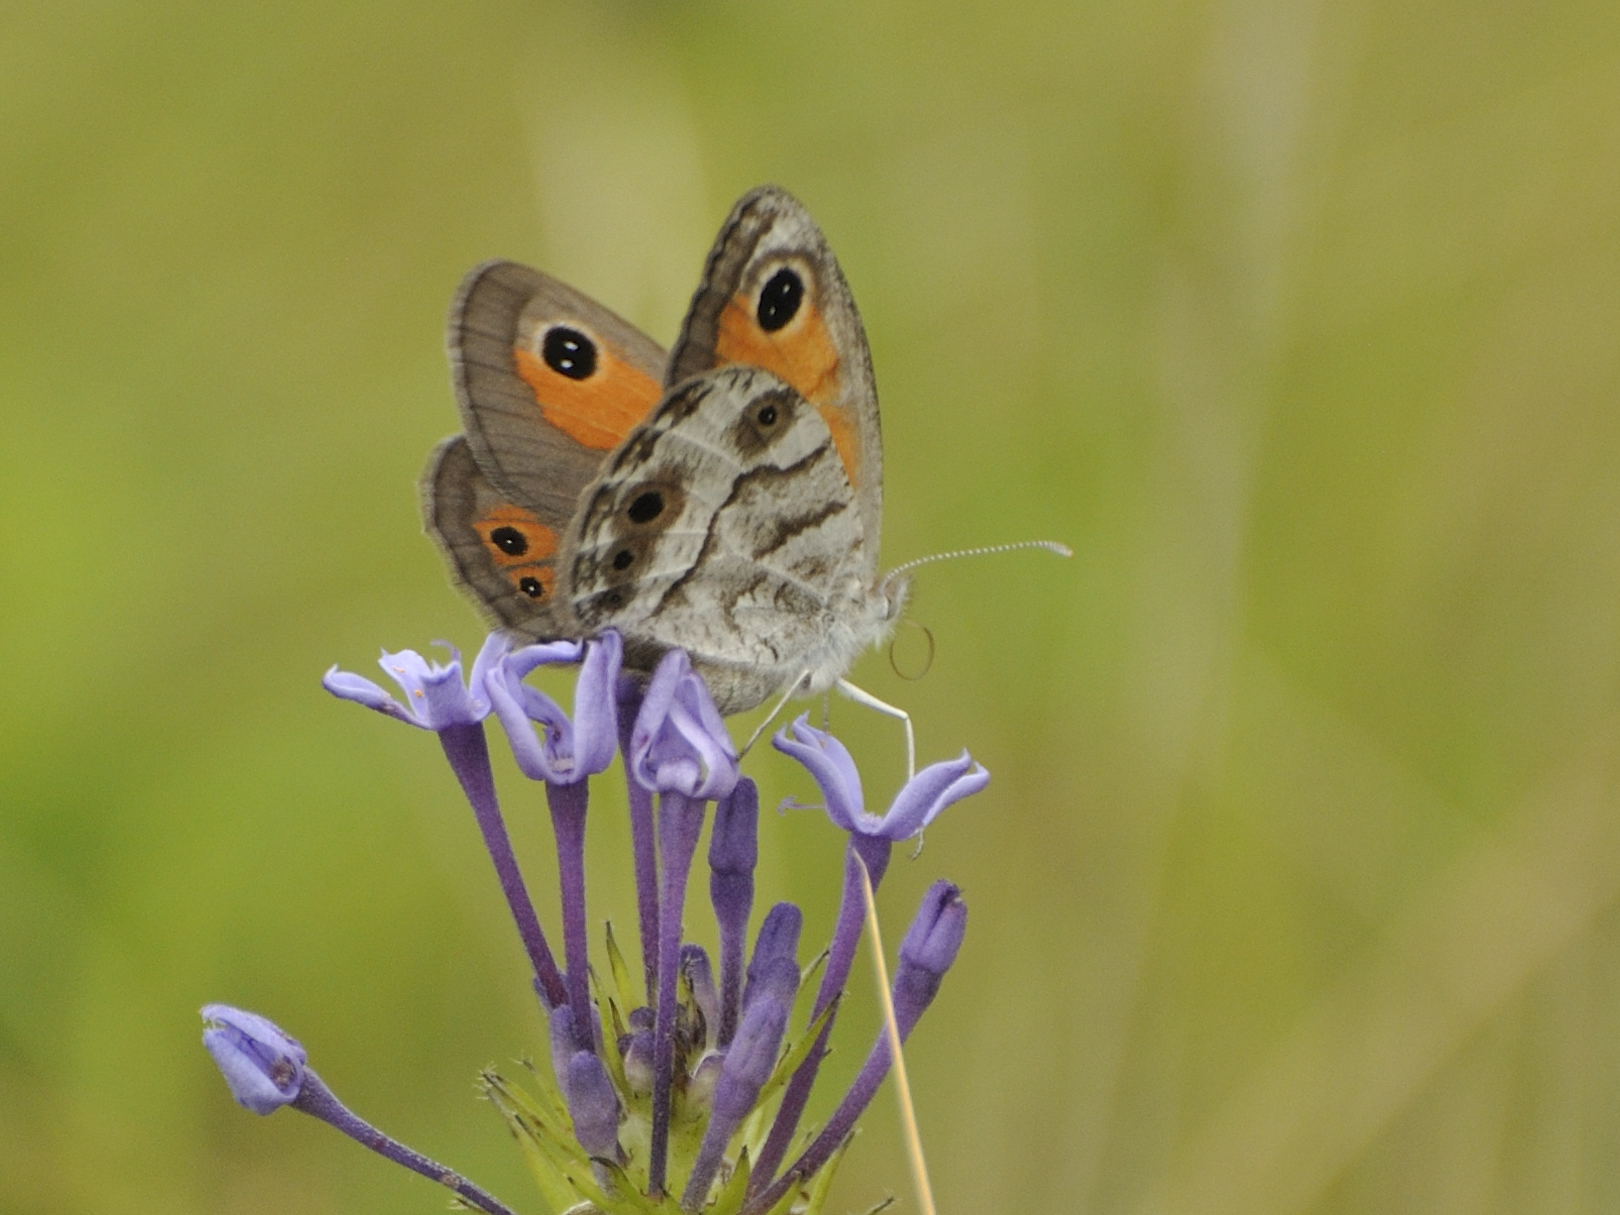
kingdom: Animalia
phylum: Arthropoda
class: Insecta
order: Lepidoptera
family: Nymphalidae
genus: Pseudonympha
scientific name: Pseudonympha magoides
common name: False silver-bottom brown
